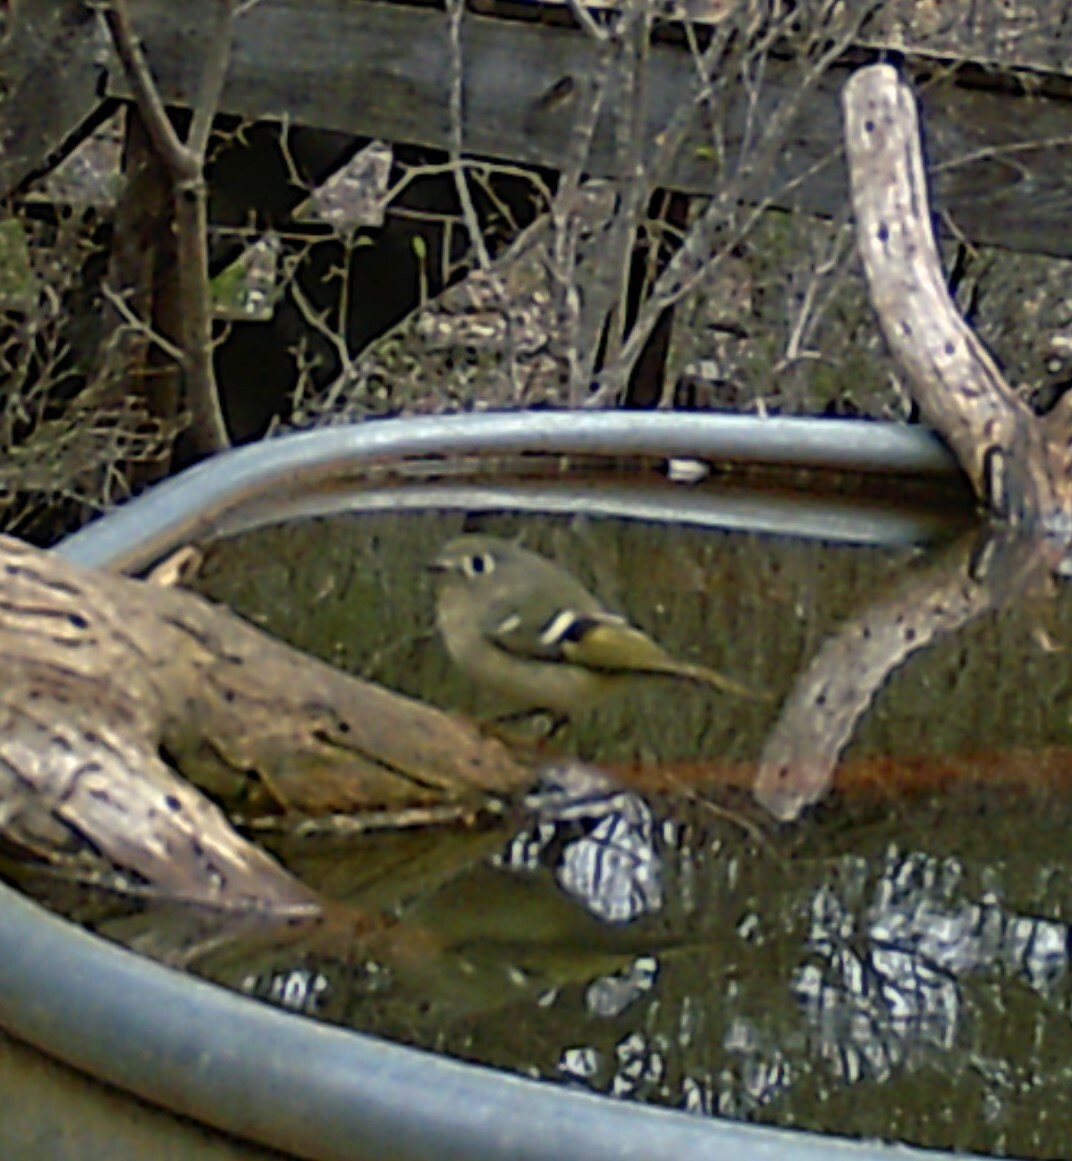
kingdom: Animalia
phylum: Chordata
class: Aves
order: Passeriformes
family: Regulidae
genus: Regulus
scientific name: Regulus calendula
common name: Ruby-crowned kinglet
